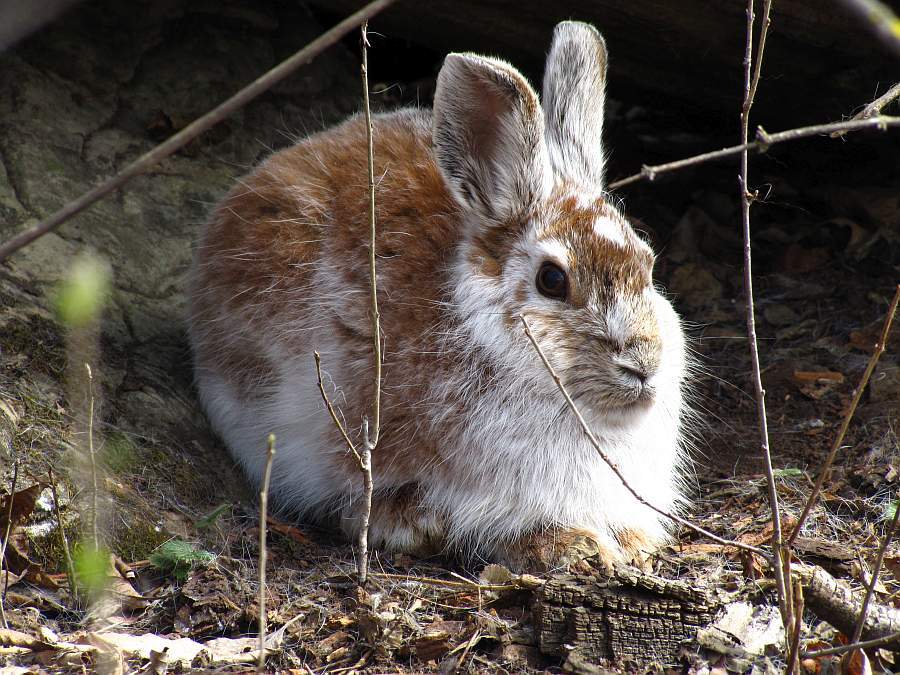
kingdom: Animalia
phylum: Chordata
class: Mammalia
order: Lagomorpha
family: Leporidae
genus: Lepus
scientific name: Lepus americanus
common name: Snowshoe hare
